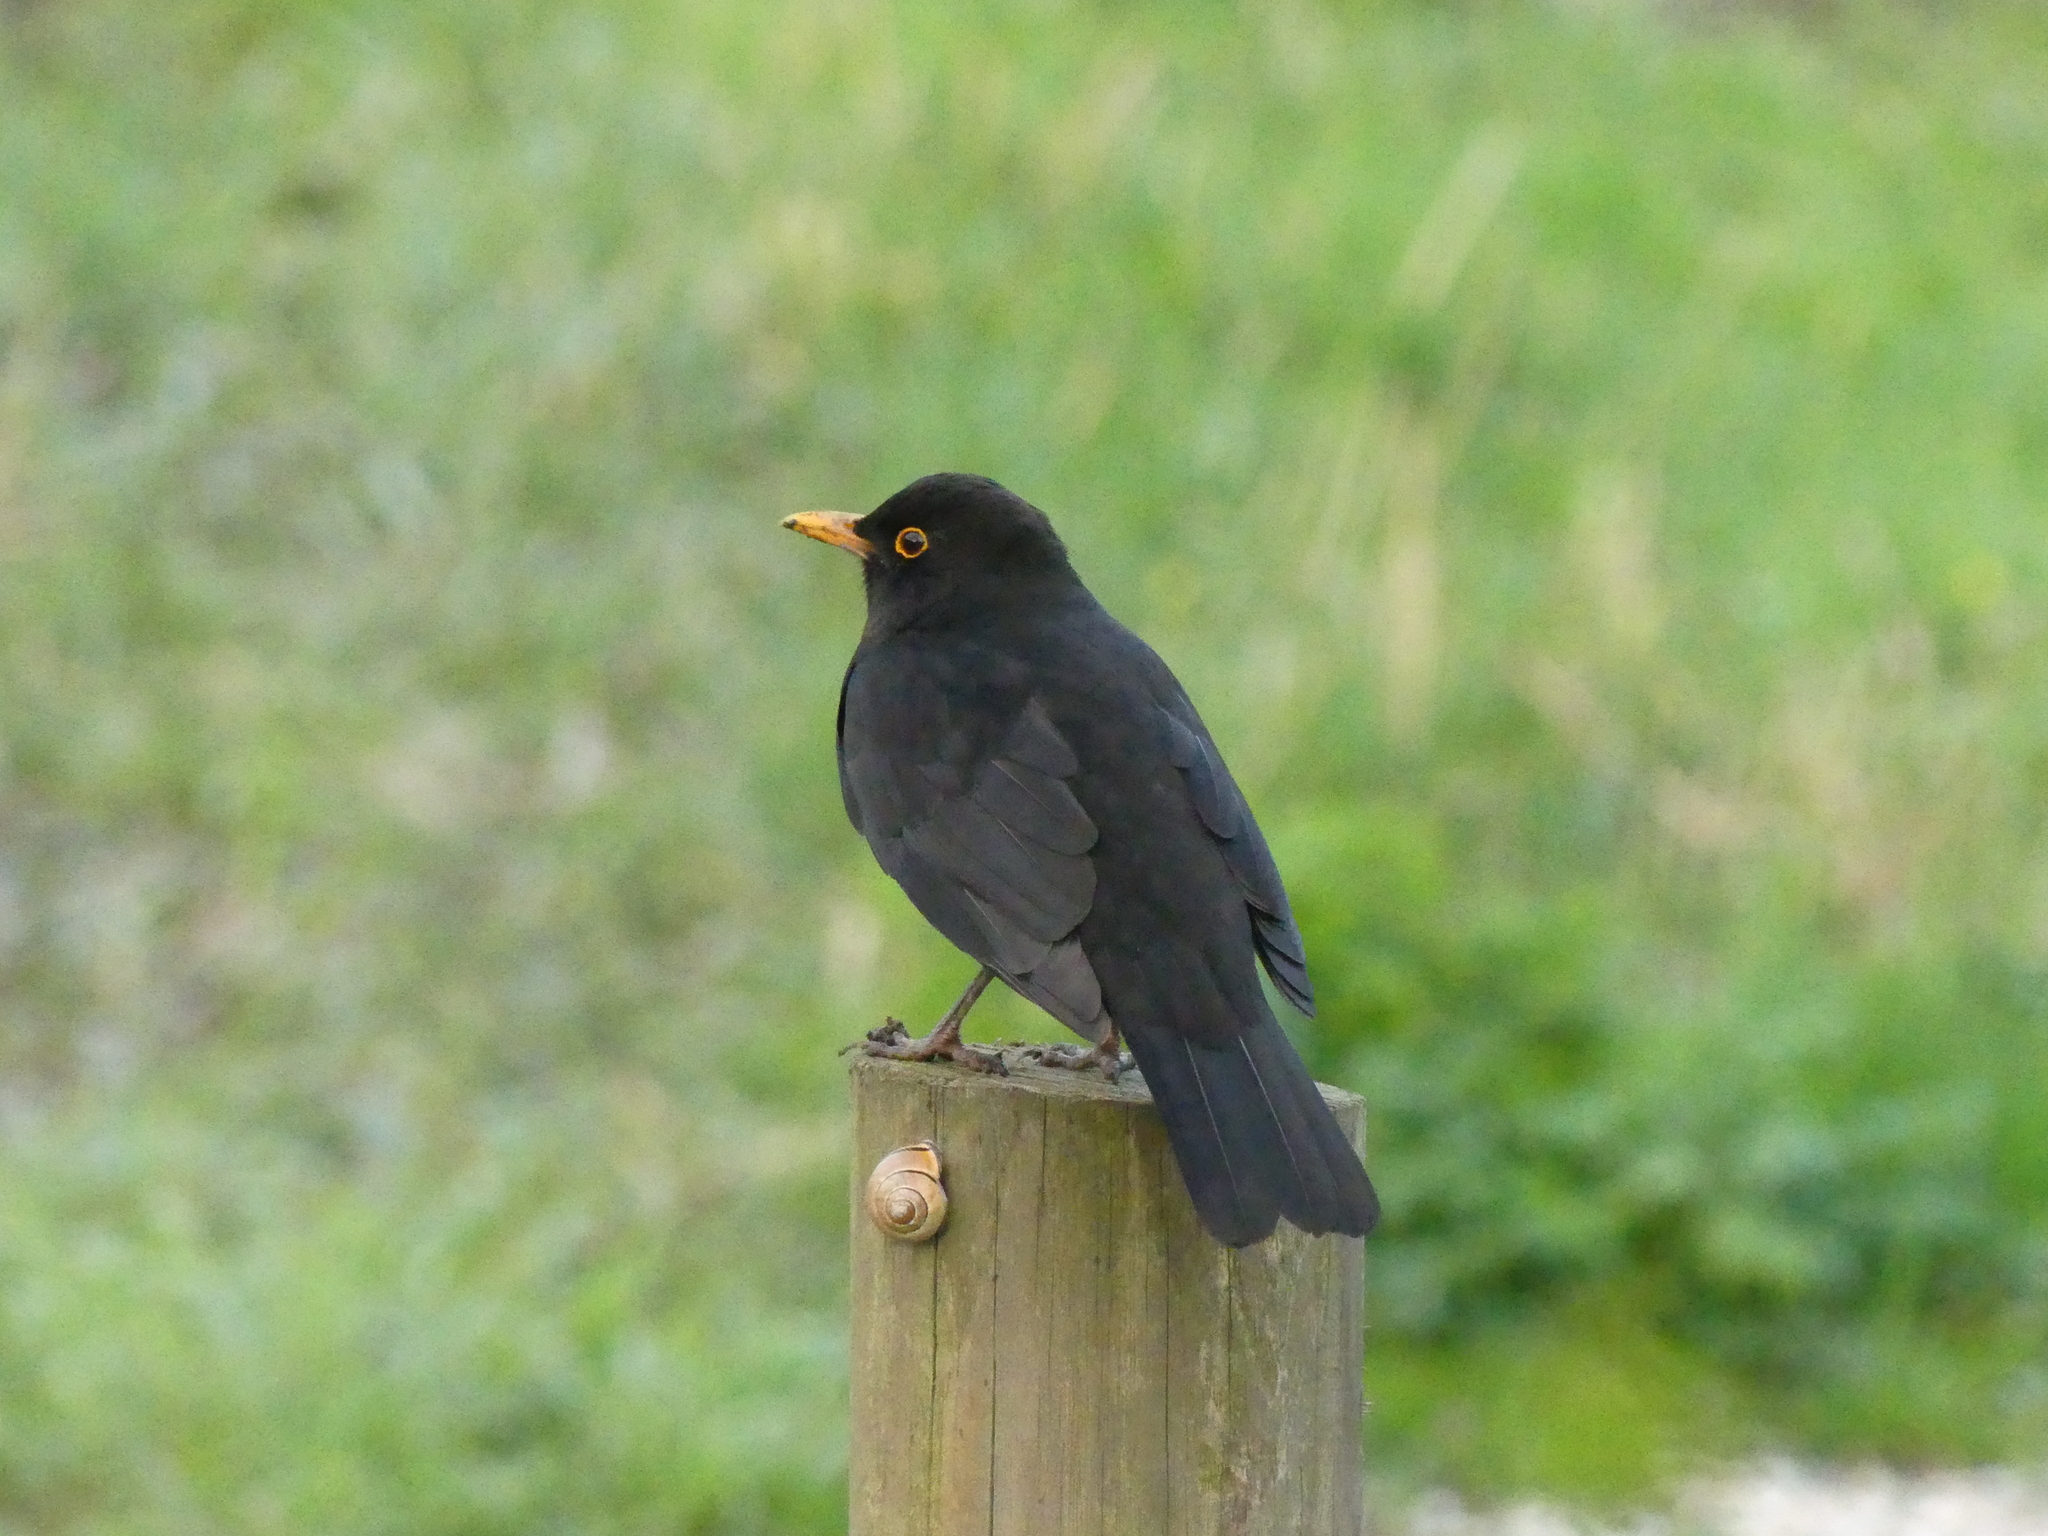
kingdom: Animalia
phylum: Chordata
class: Aves
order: Passeriformes
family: Turdidae
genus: Turdus
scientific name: Turdus merula
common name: Common blackbird
